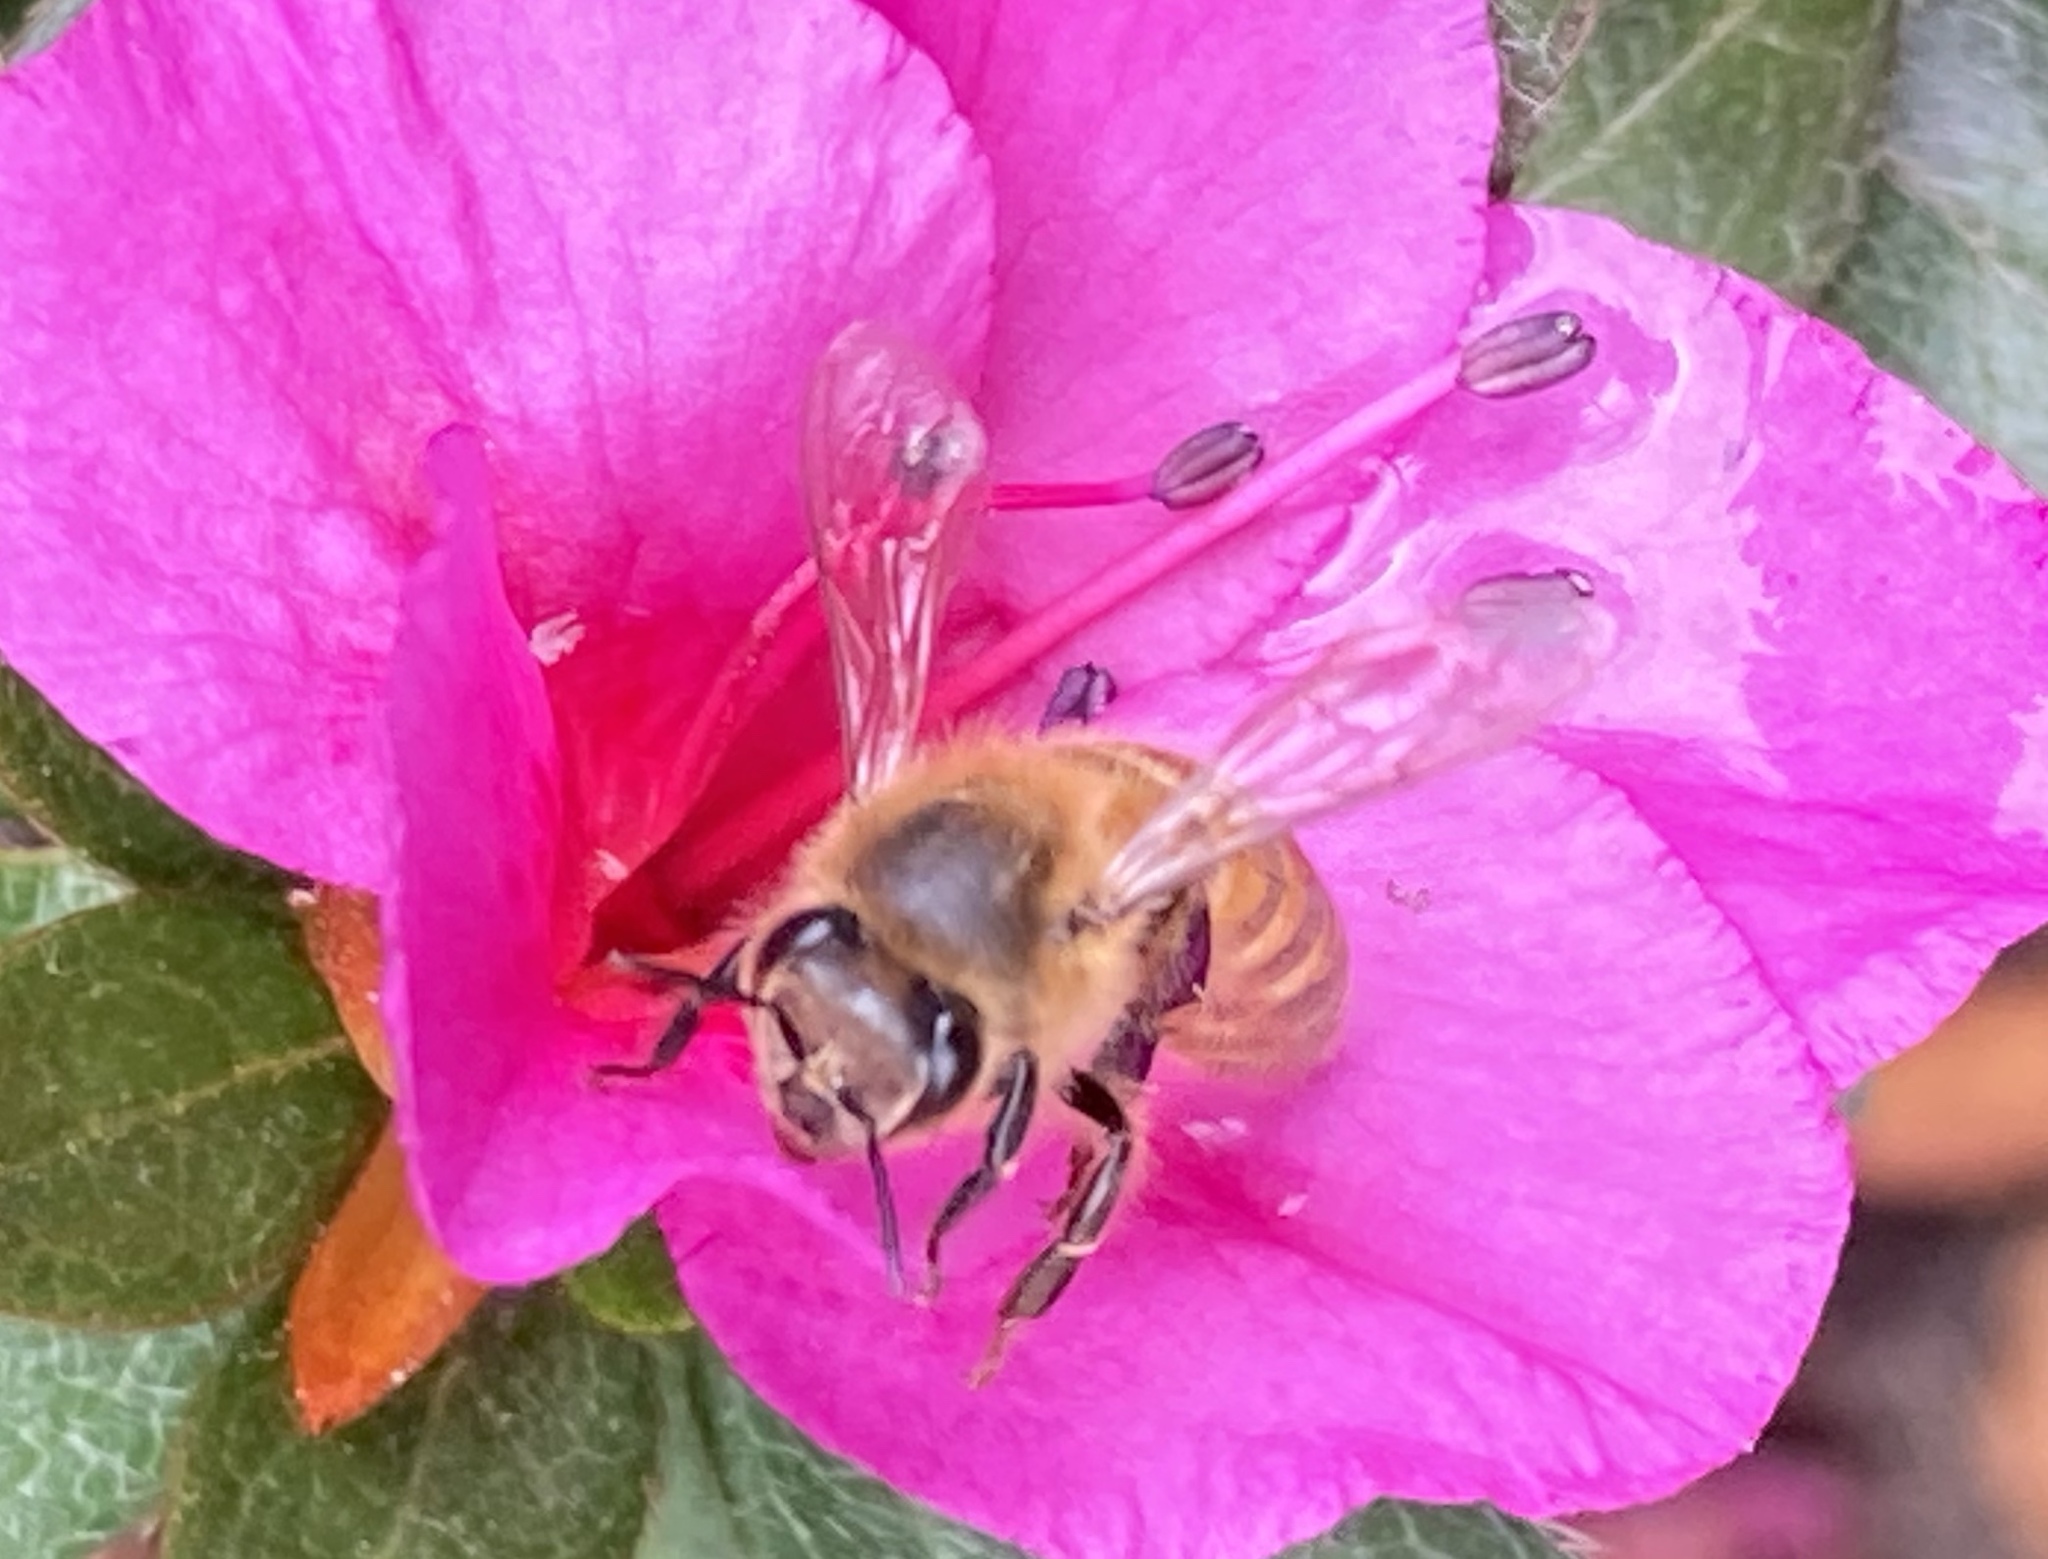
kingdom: Animalia
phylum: Arthropoda
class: Insecta
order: Hymenoptera
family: Apidae
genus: Apis
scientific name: Apis mellifera
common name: Honey bee
